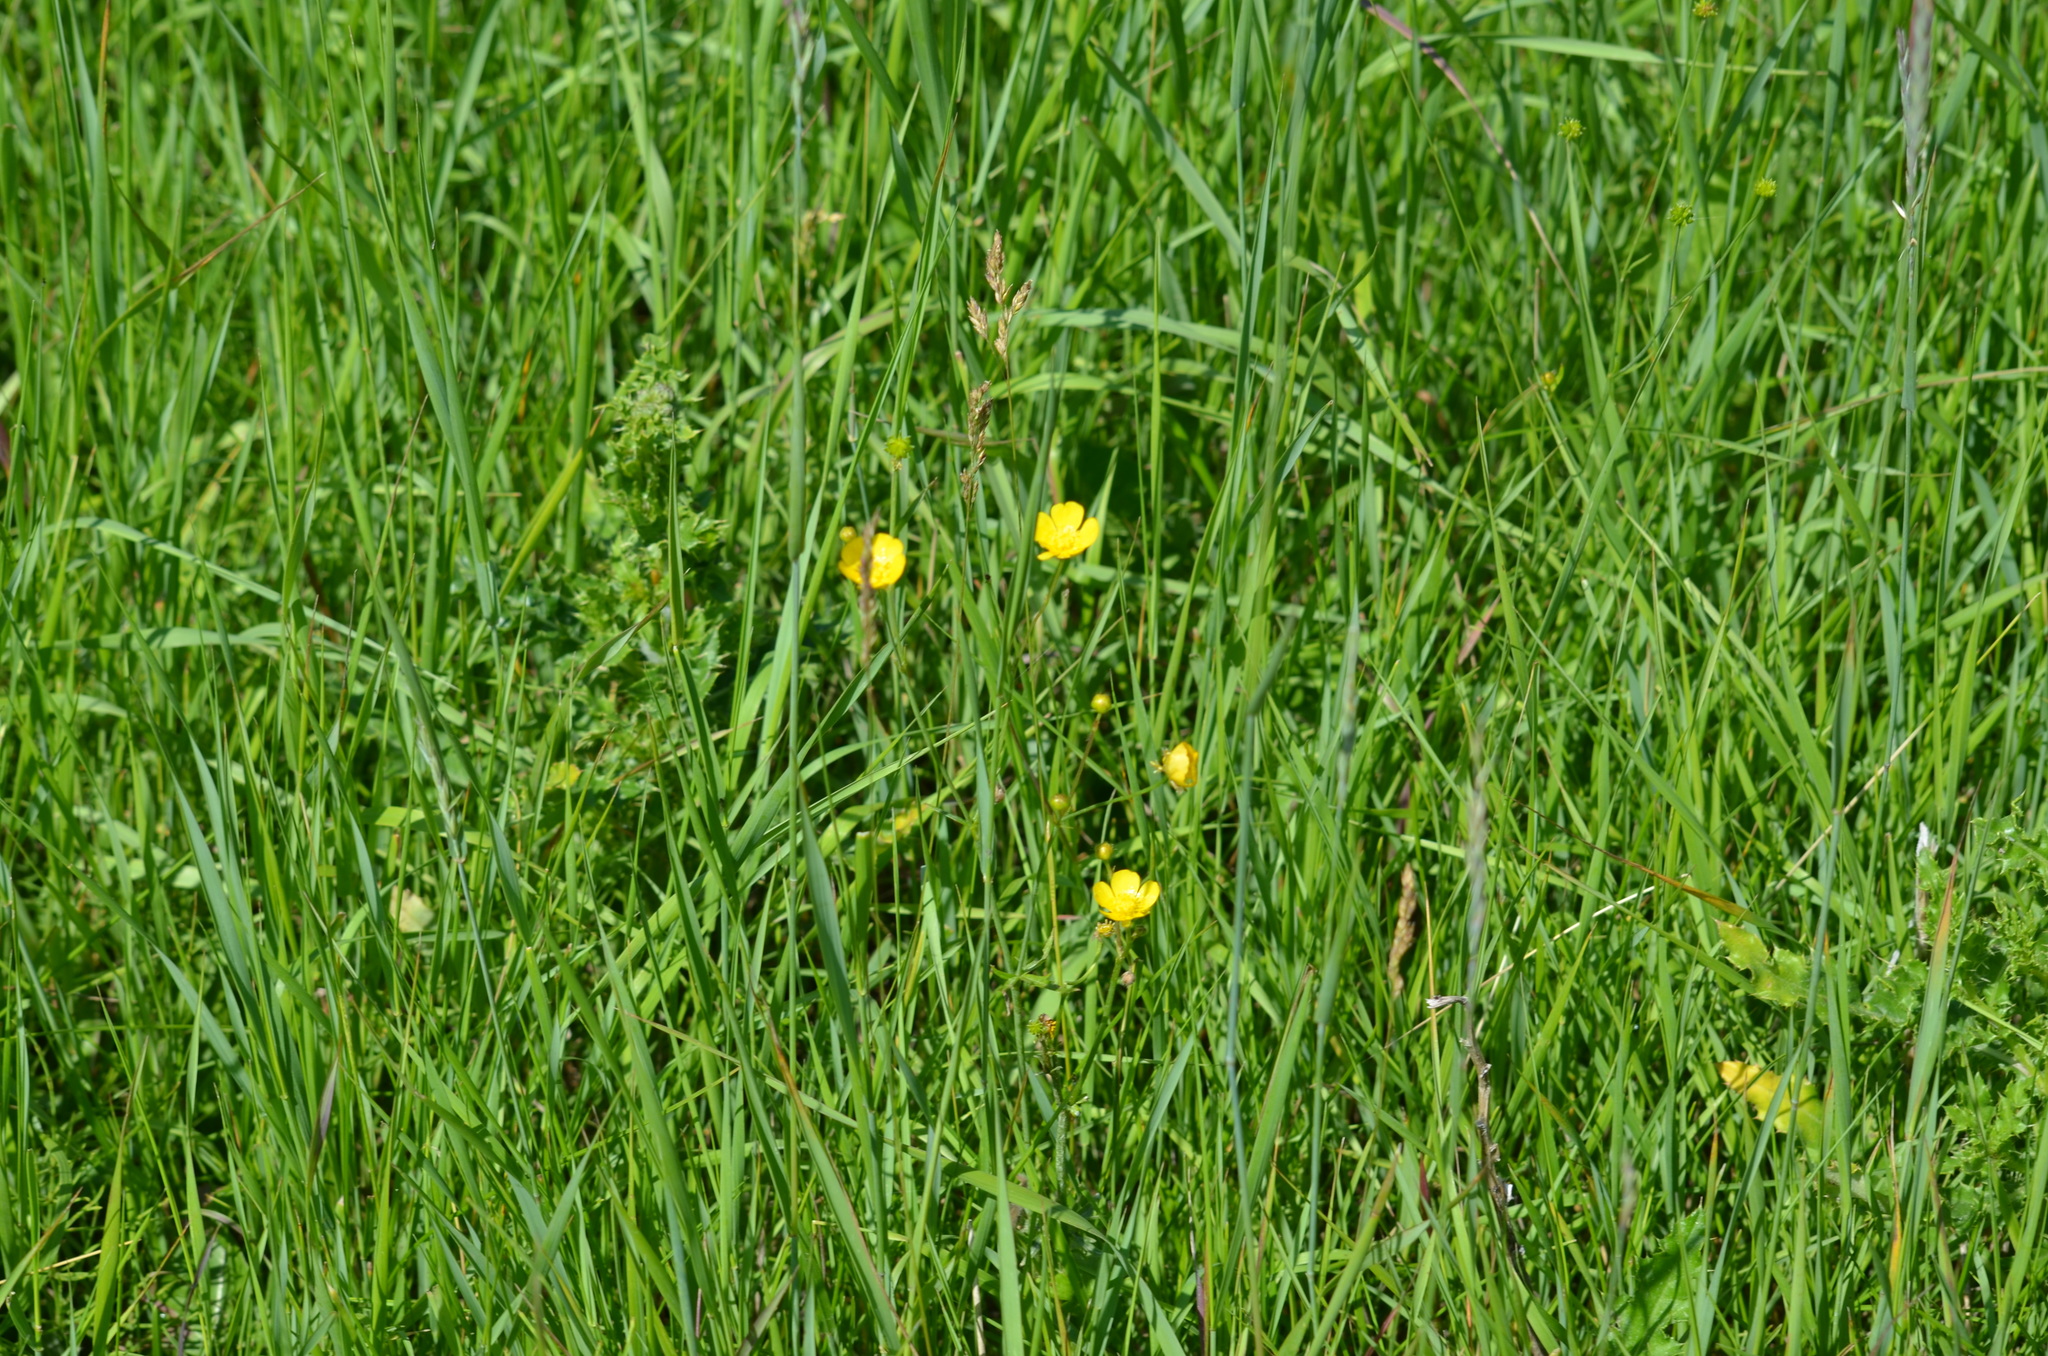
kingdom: Plantae
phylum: Tracheophyta
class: Magnoliopsida
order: Ranunculales
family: Ranunculaceae
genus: Ranunculus
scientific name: Ranunculus acris
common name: Meadow buttercup
